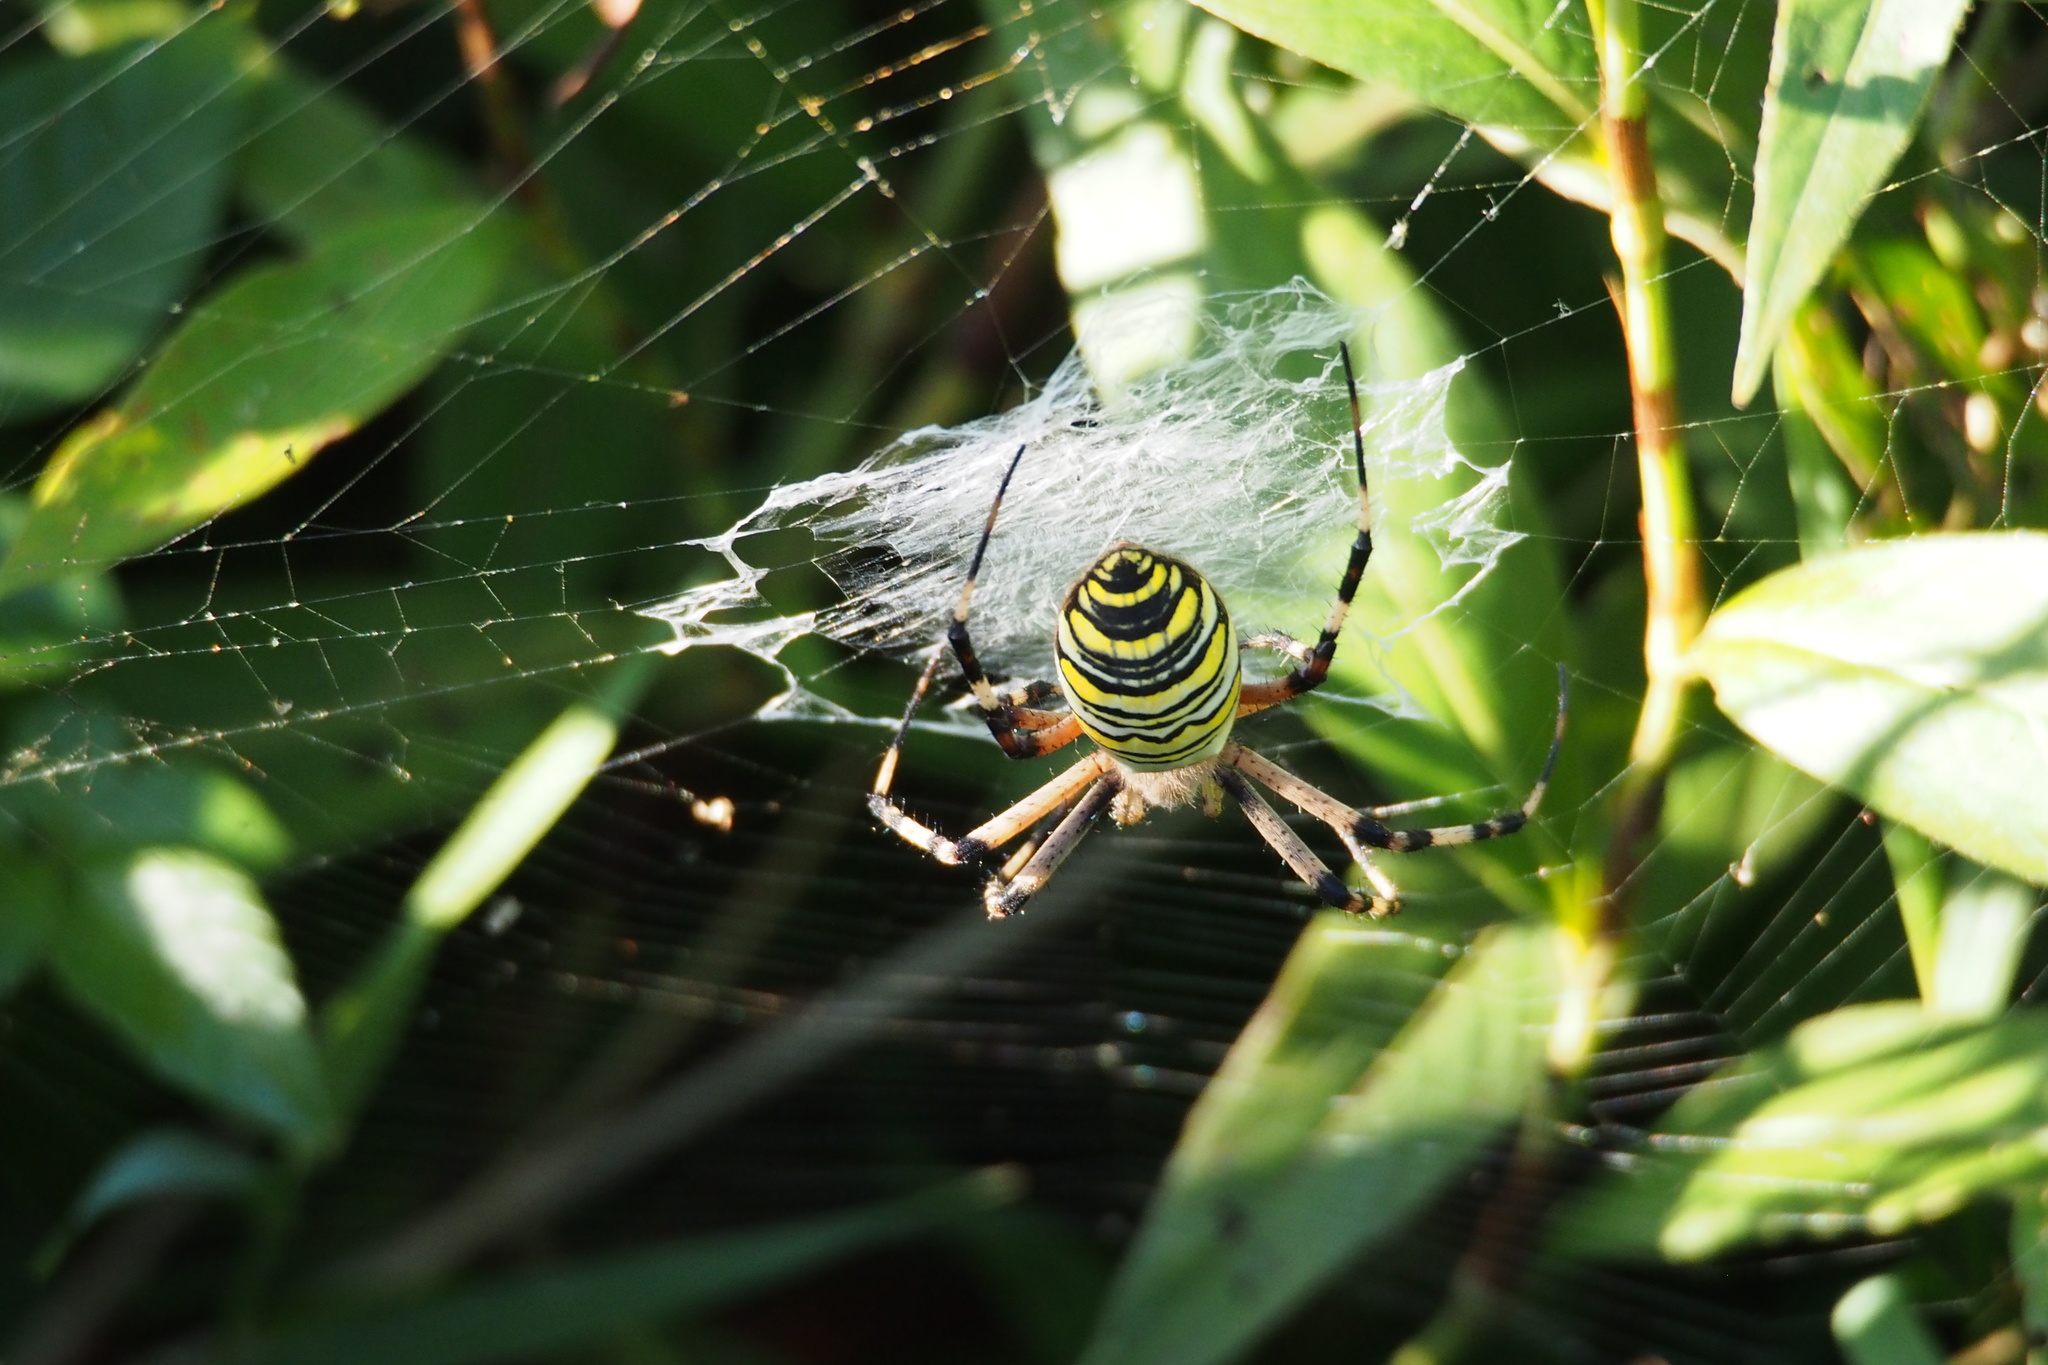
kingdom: Animalia
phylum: Arthropoda
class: Arachnida
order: Araneae
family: Araneidae
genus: Argiope
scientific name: Argiope bruennichi
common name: Wasp spider
